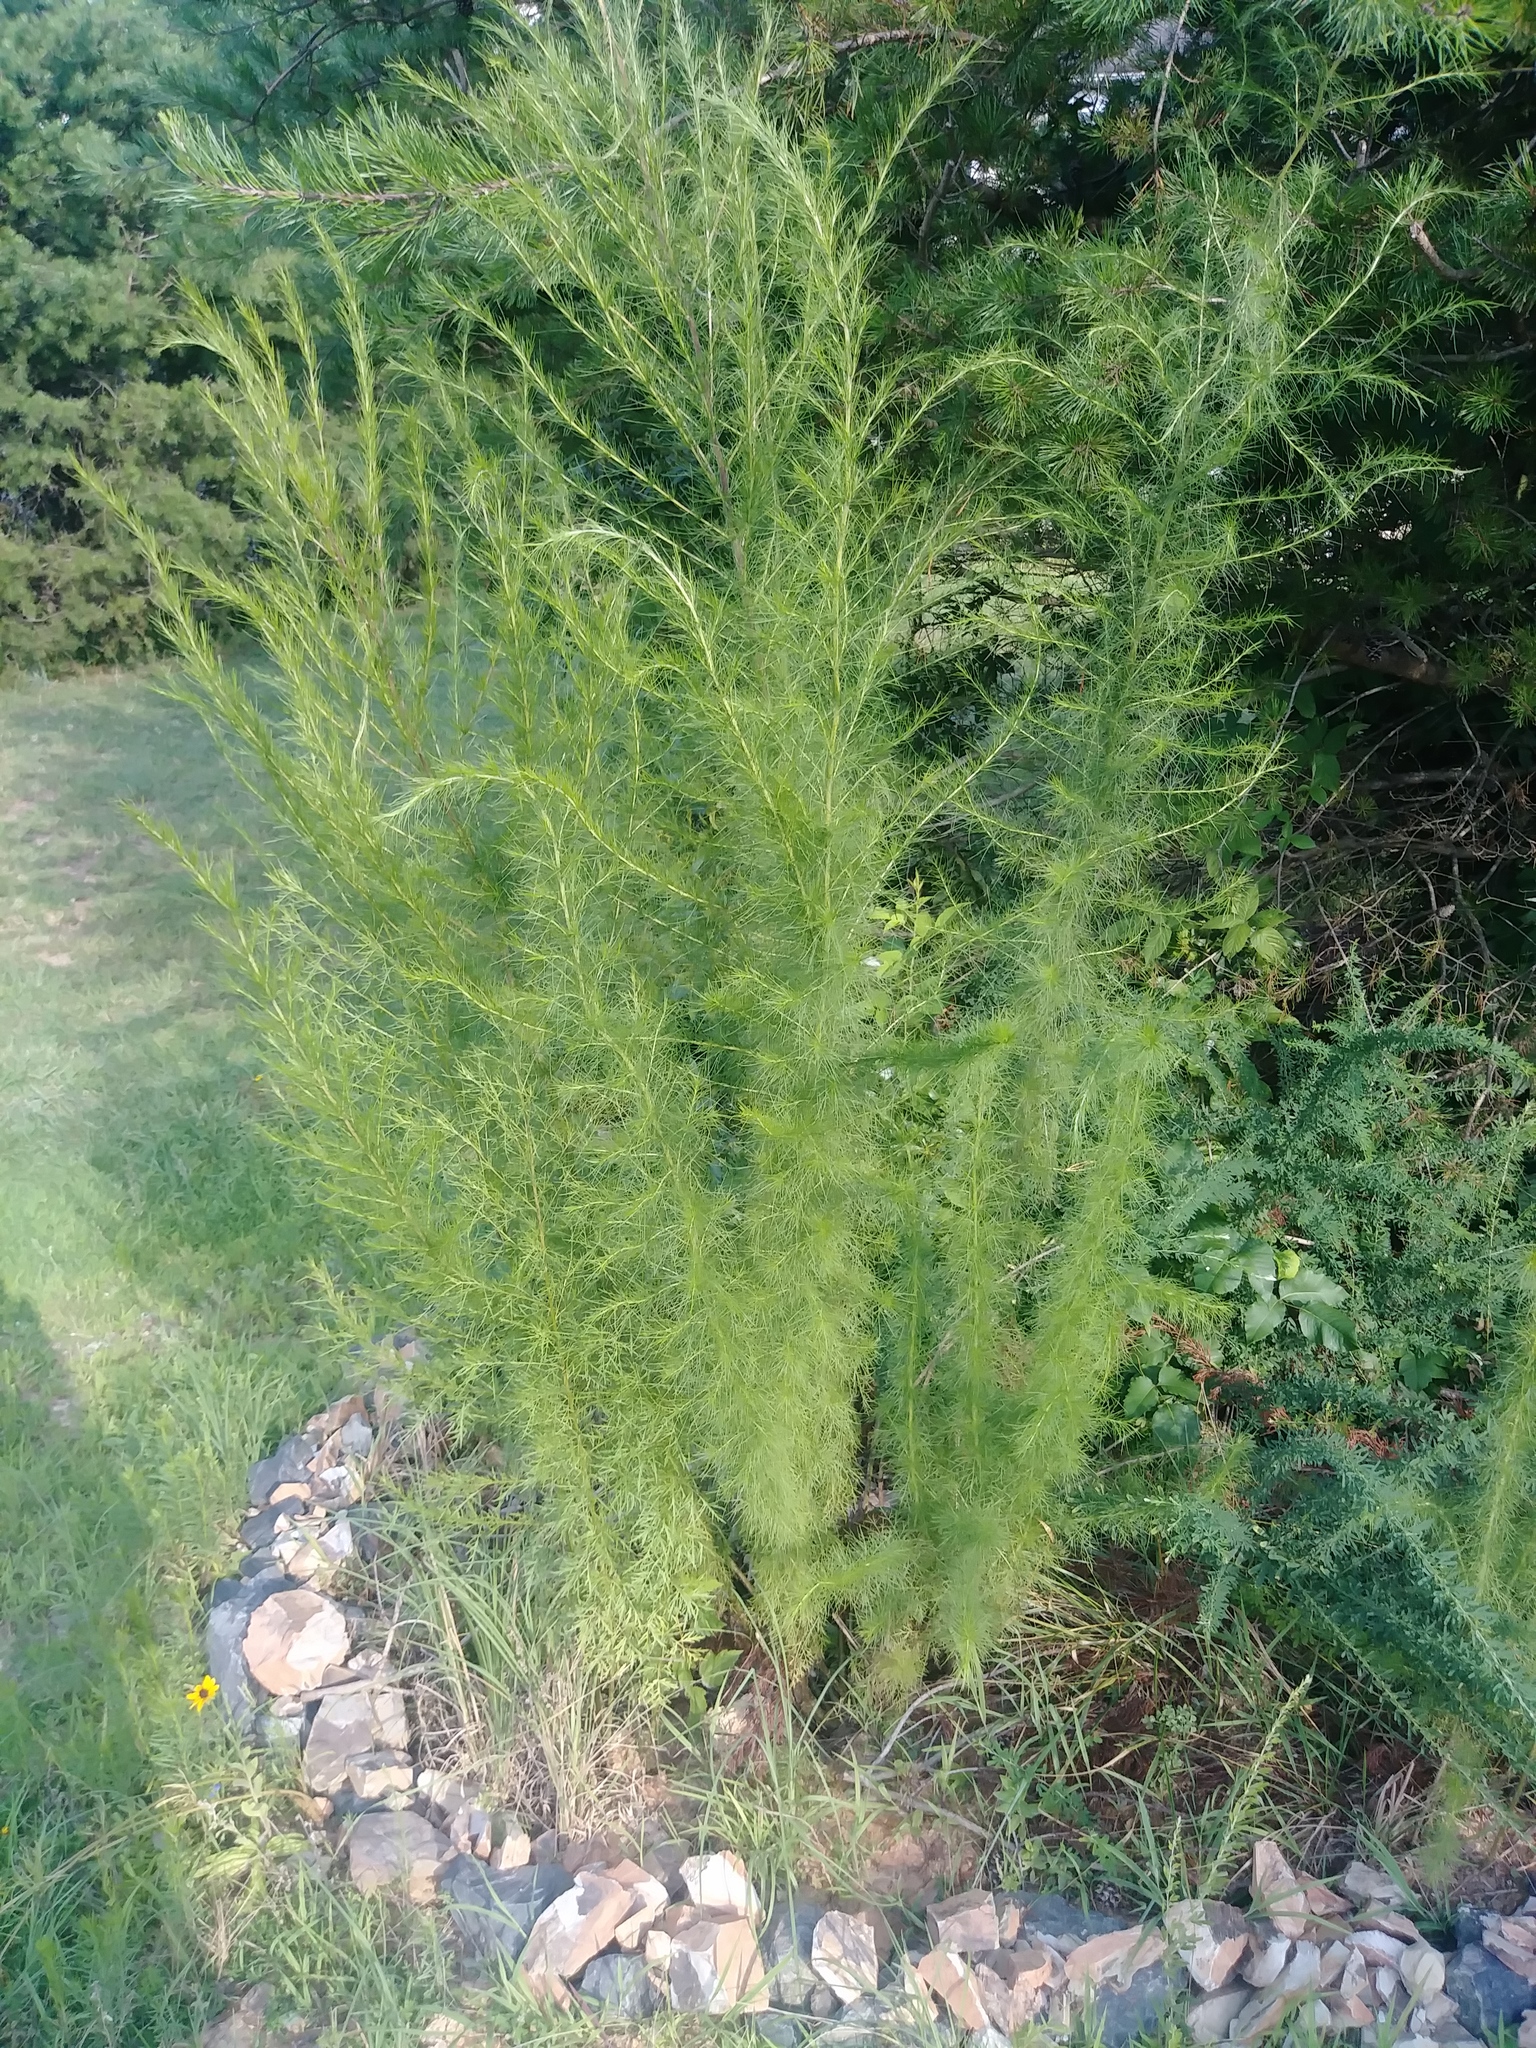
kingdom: Plantae
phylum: Tracheophyta
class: Magnoliopsida
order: Asterales
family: Asteraceae
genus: Eupatorium
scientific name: Eupatorium capillifolium
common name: Dog-fennel
